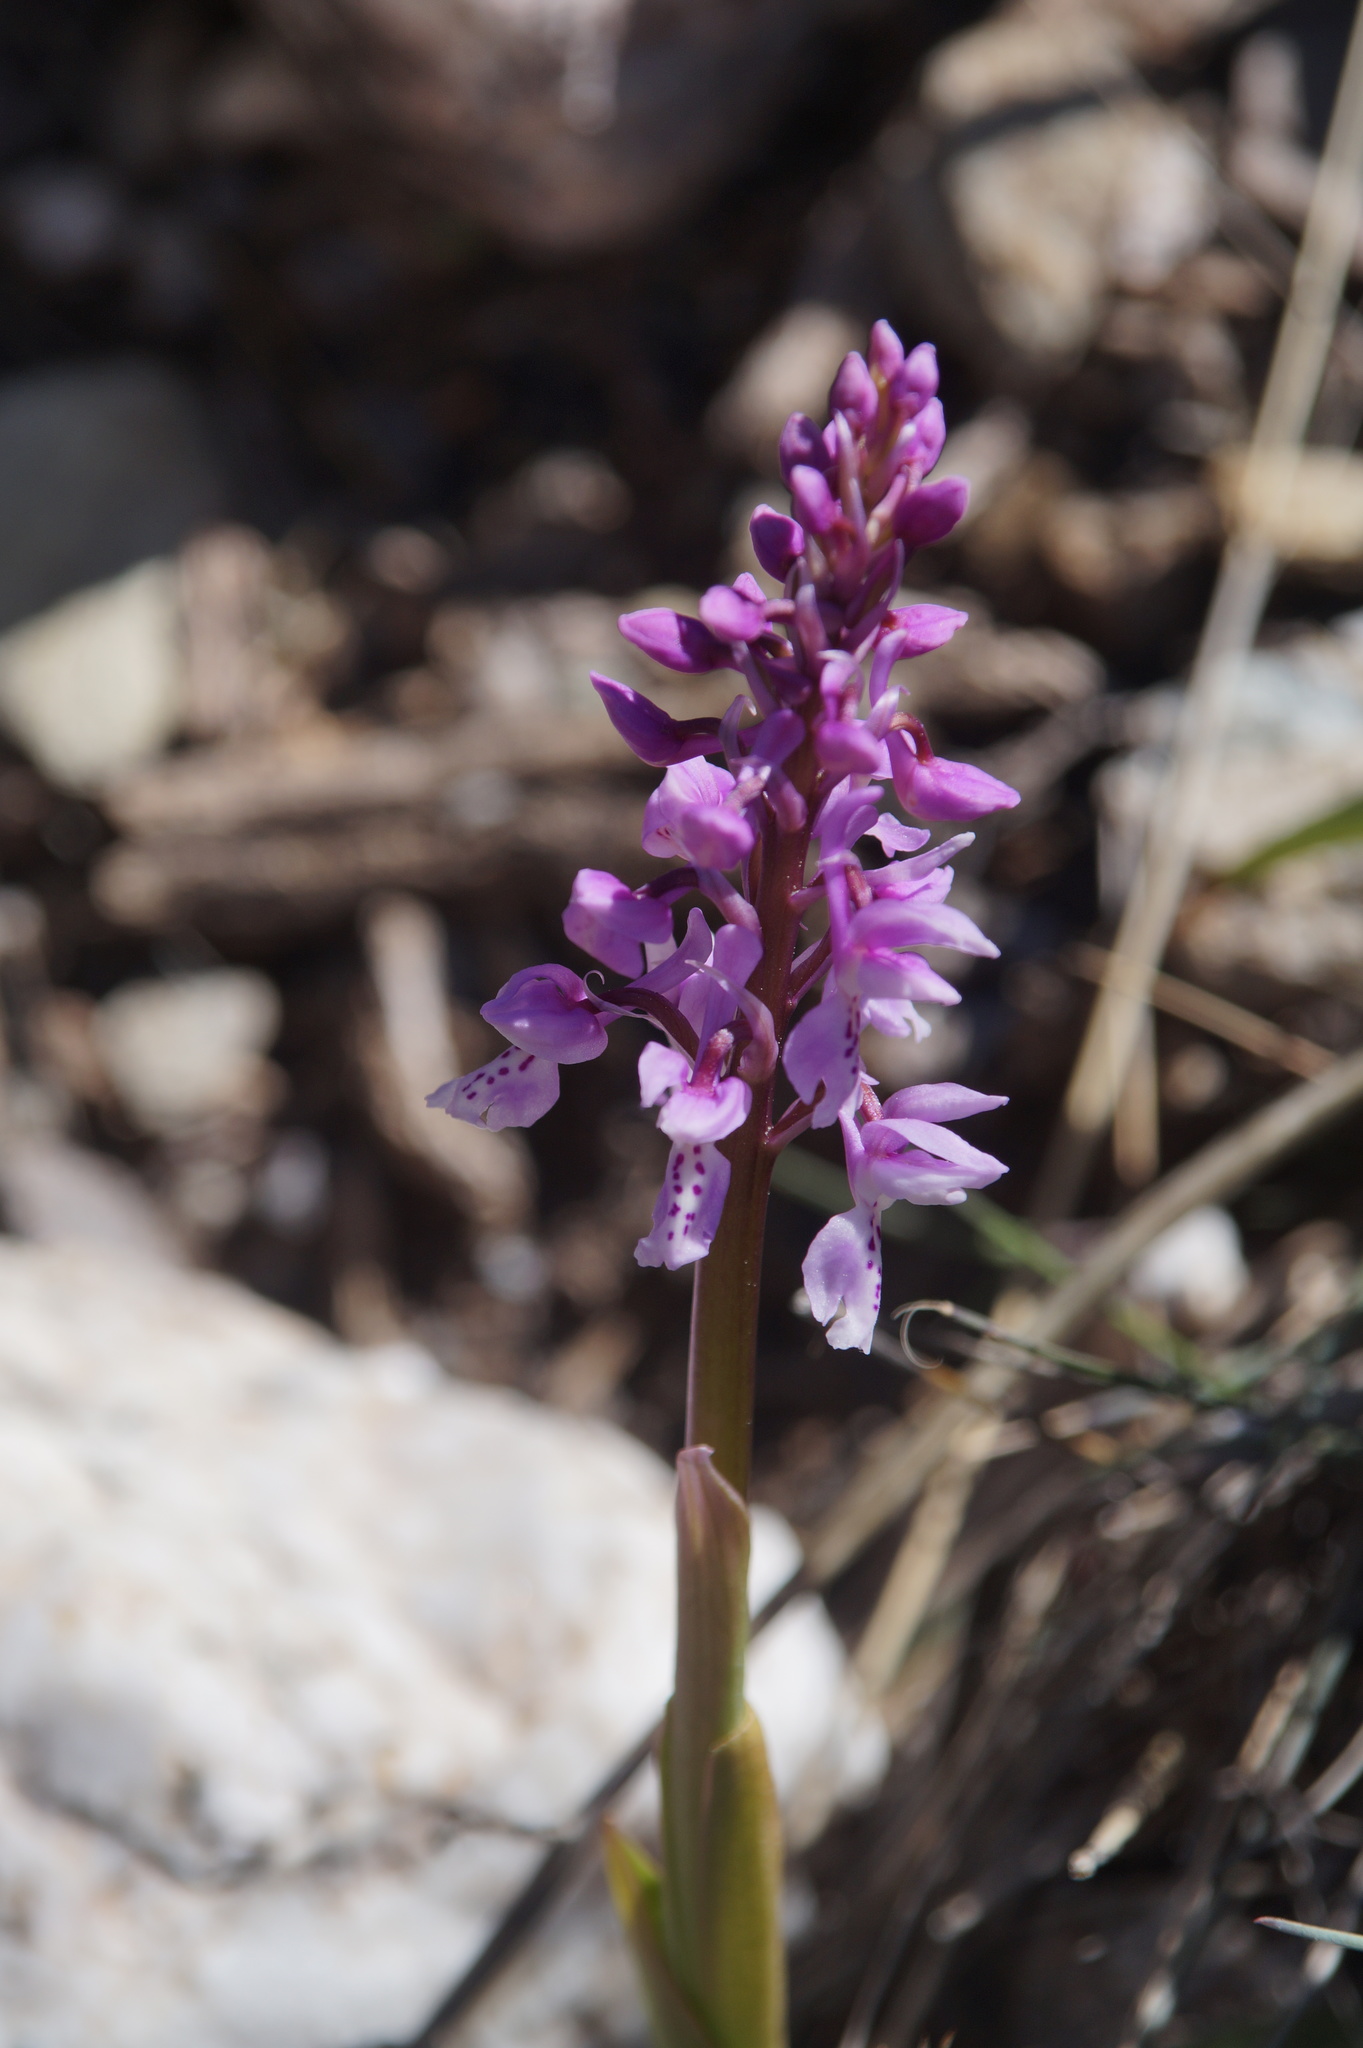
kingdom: Plantae
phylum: Tracheophyta
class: Liliopsida
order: Asparagales
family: Orchidaceae
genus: Orchis
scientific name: Orchis olbiensis
